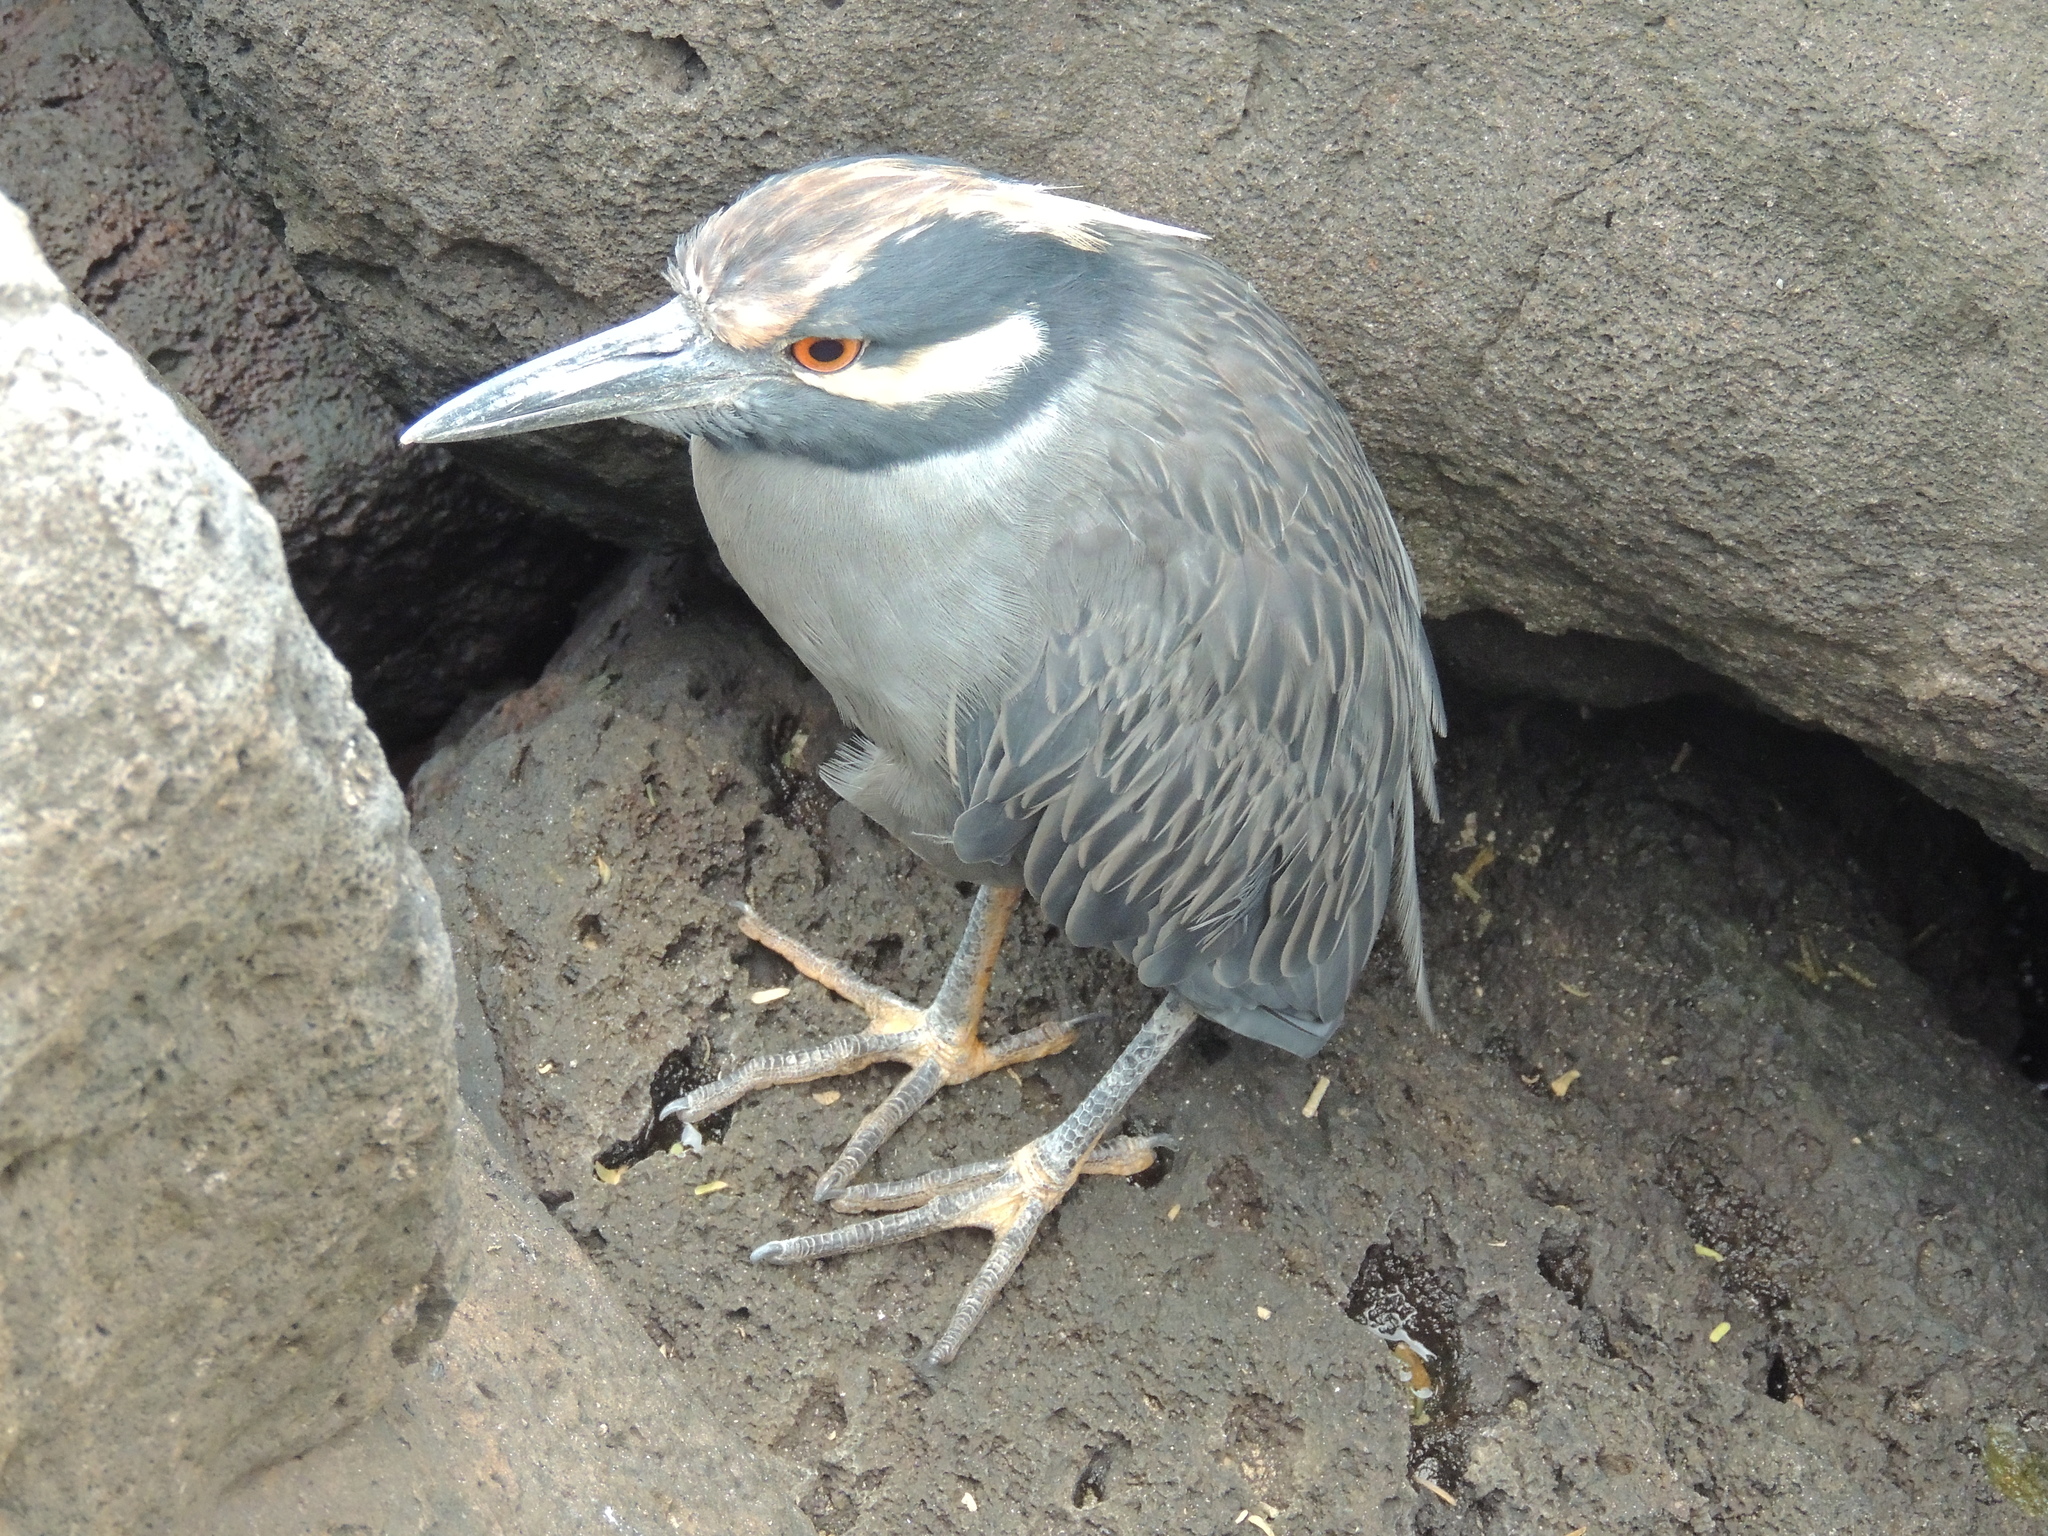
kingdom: Animalia
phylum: Chordata
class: Aves
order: Pelecaniformes
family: Ardeidae
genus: Nyctanassa
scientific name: Nyctanassa violacea
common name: Yellow-crowned night heron
